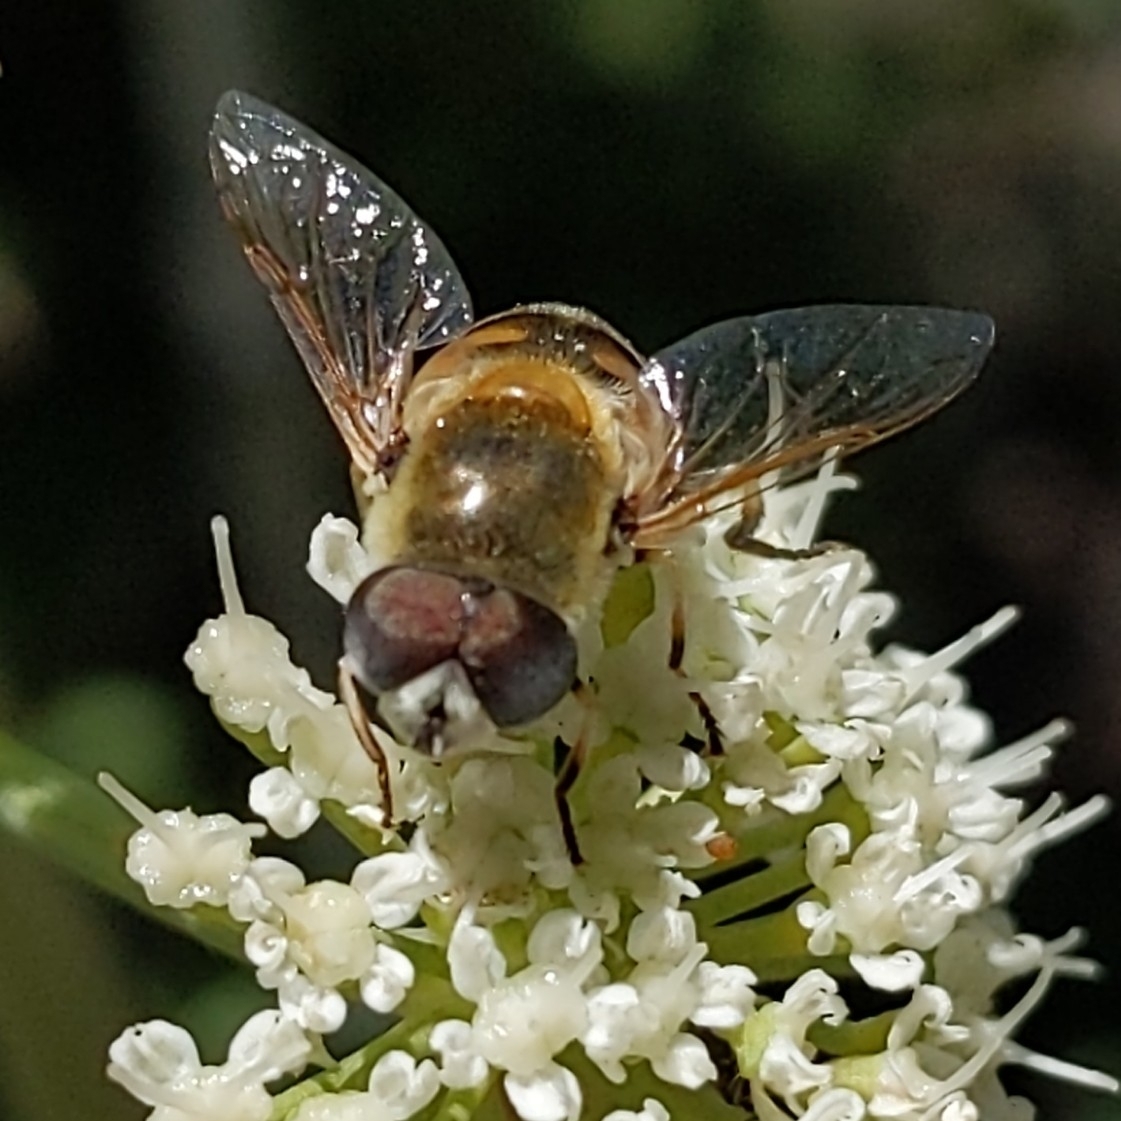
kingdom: Animalia
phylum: Arthropoda
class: Insecta
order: Diptera
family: Syrphidae
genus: Eristalis
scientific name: Eristalis stipator
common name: Yellow-shouldered drone fly
